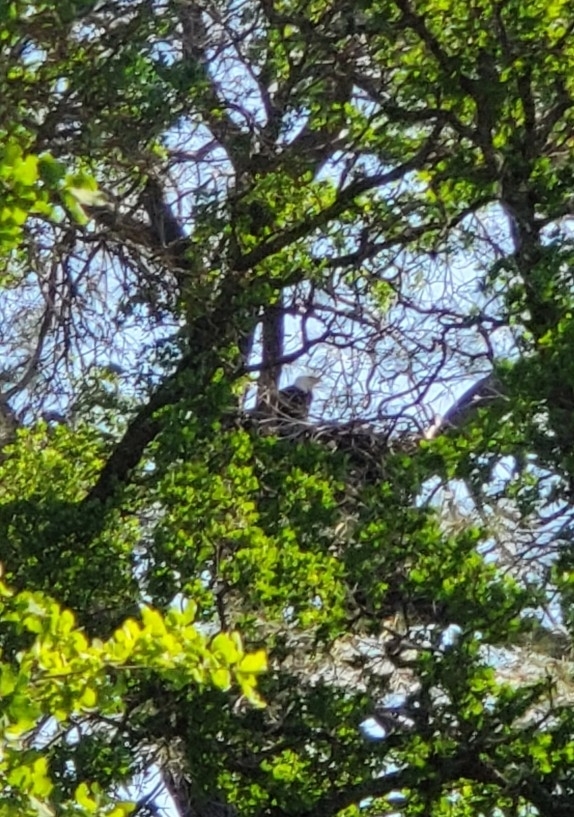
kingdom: Animalia
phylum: Chordata
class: Aves
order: Accipitriformes
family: Accipitridae
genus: Haliaeetus
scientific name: Haliaeetus leucocephalus
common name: Bald eagle
